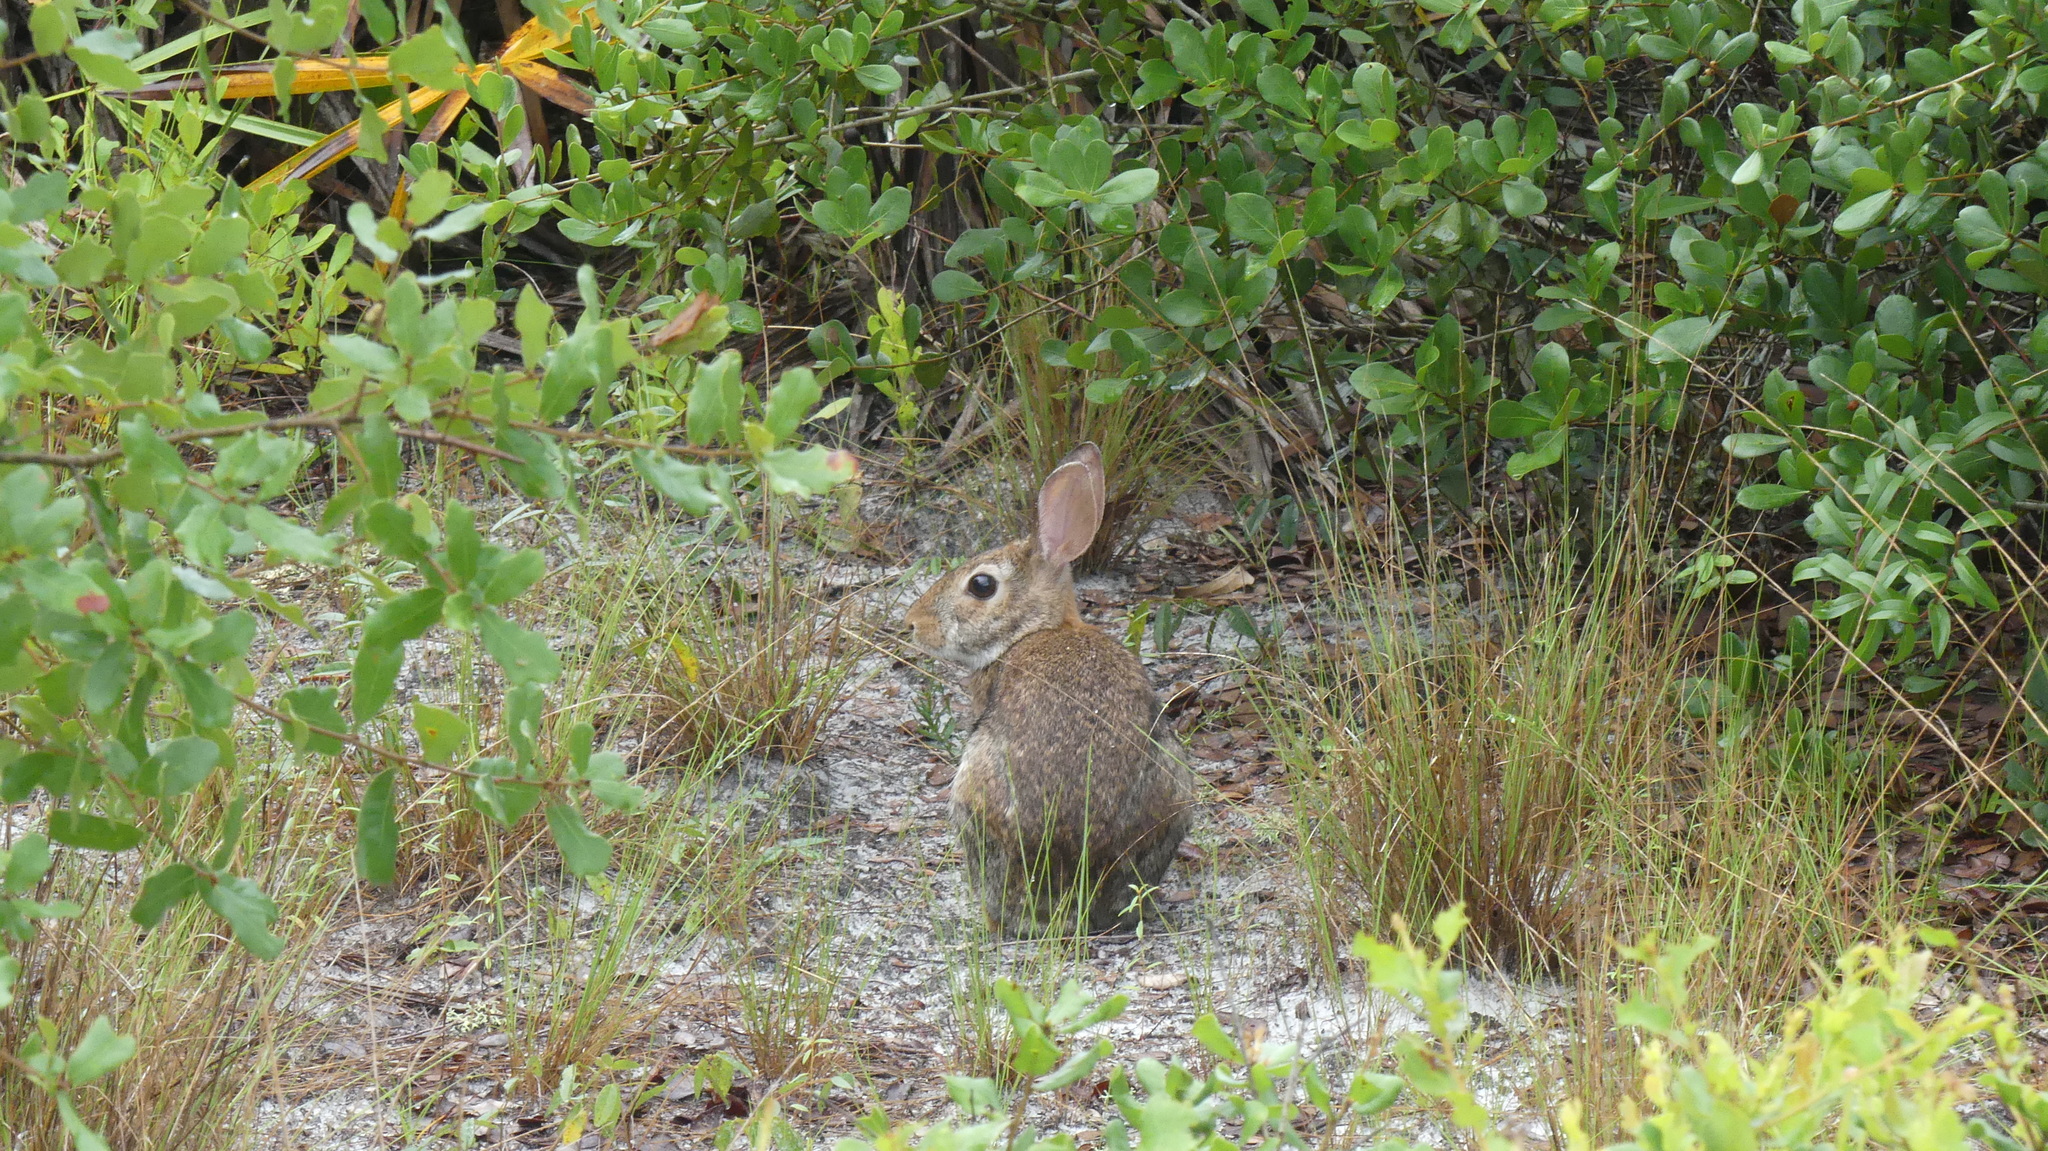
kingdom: Animalia
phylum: Chordata
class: Mammalia
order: Lagomorpha
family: Leporidae
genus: Sylvilagus
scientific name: Sylvilagus floridanus
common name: Eastern cottontail
